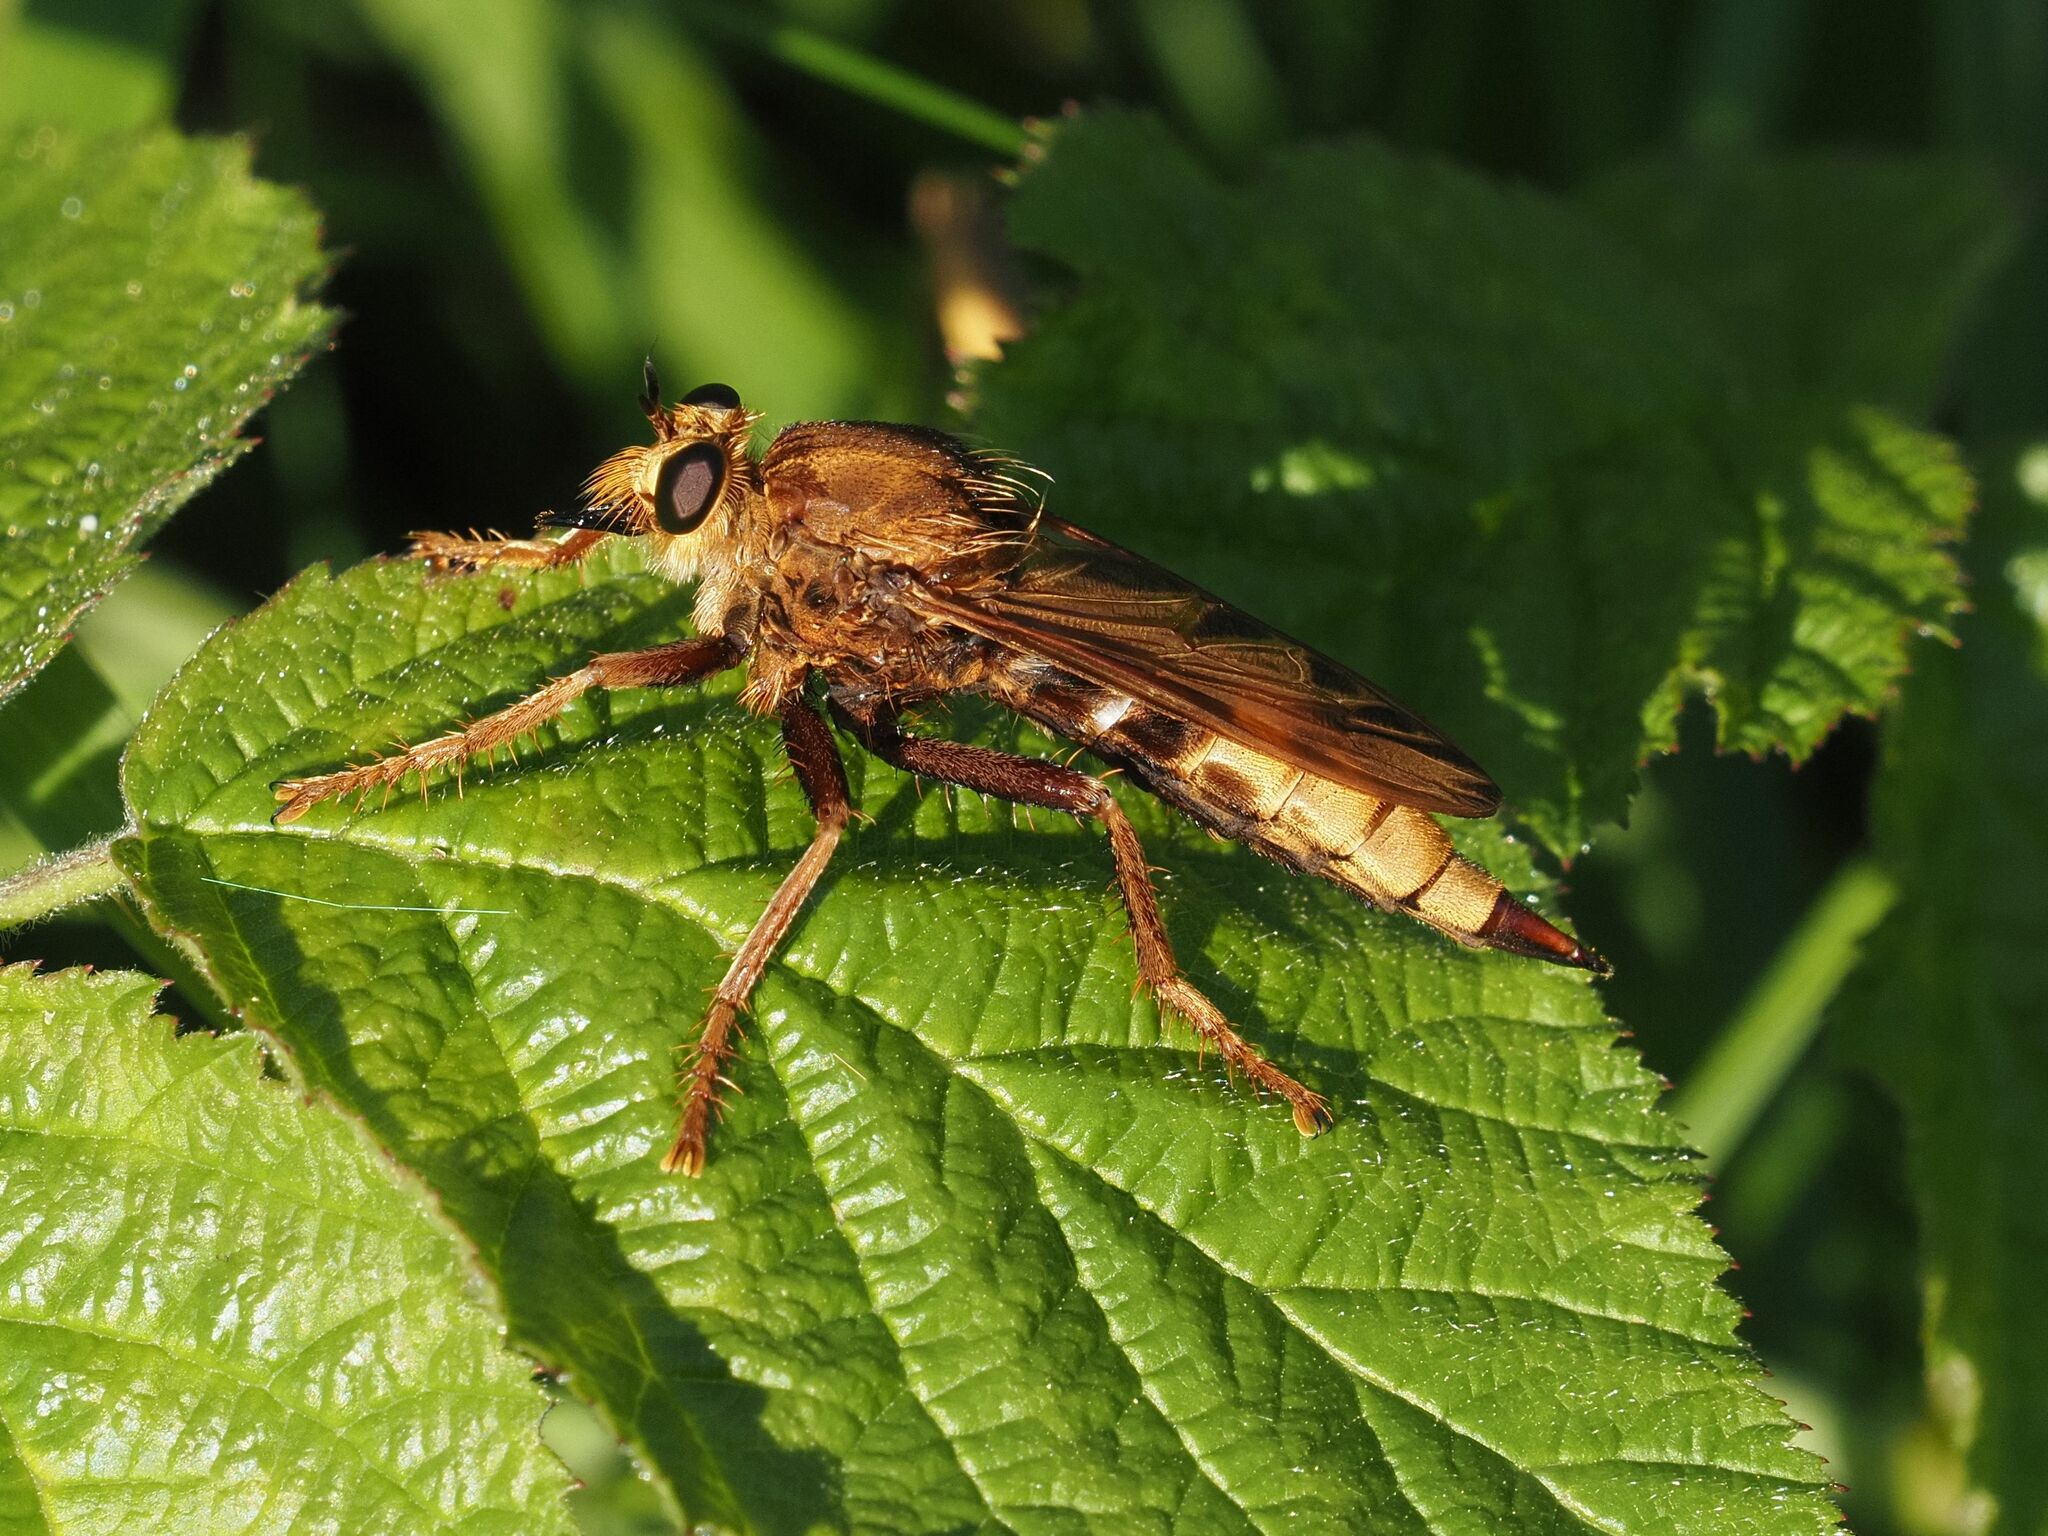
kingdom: Animalia
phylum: Arthropoda
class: Insecta
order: Diptera
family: Asilidae
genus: Asilus
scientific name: Asilus crabroniformis
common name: Hornet robberfly
